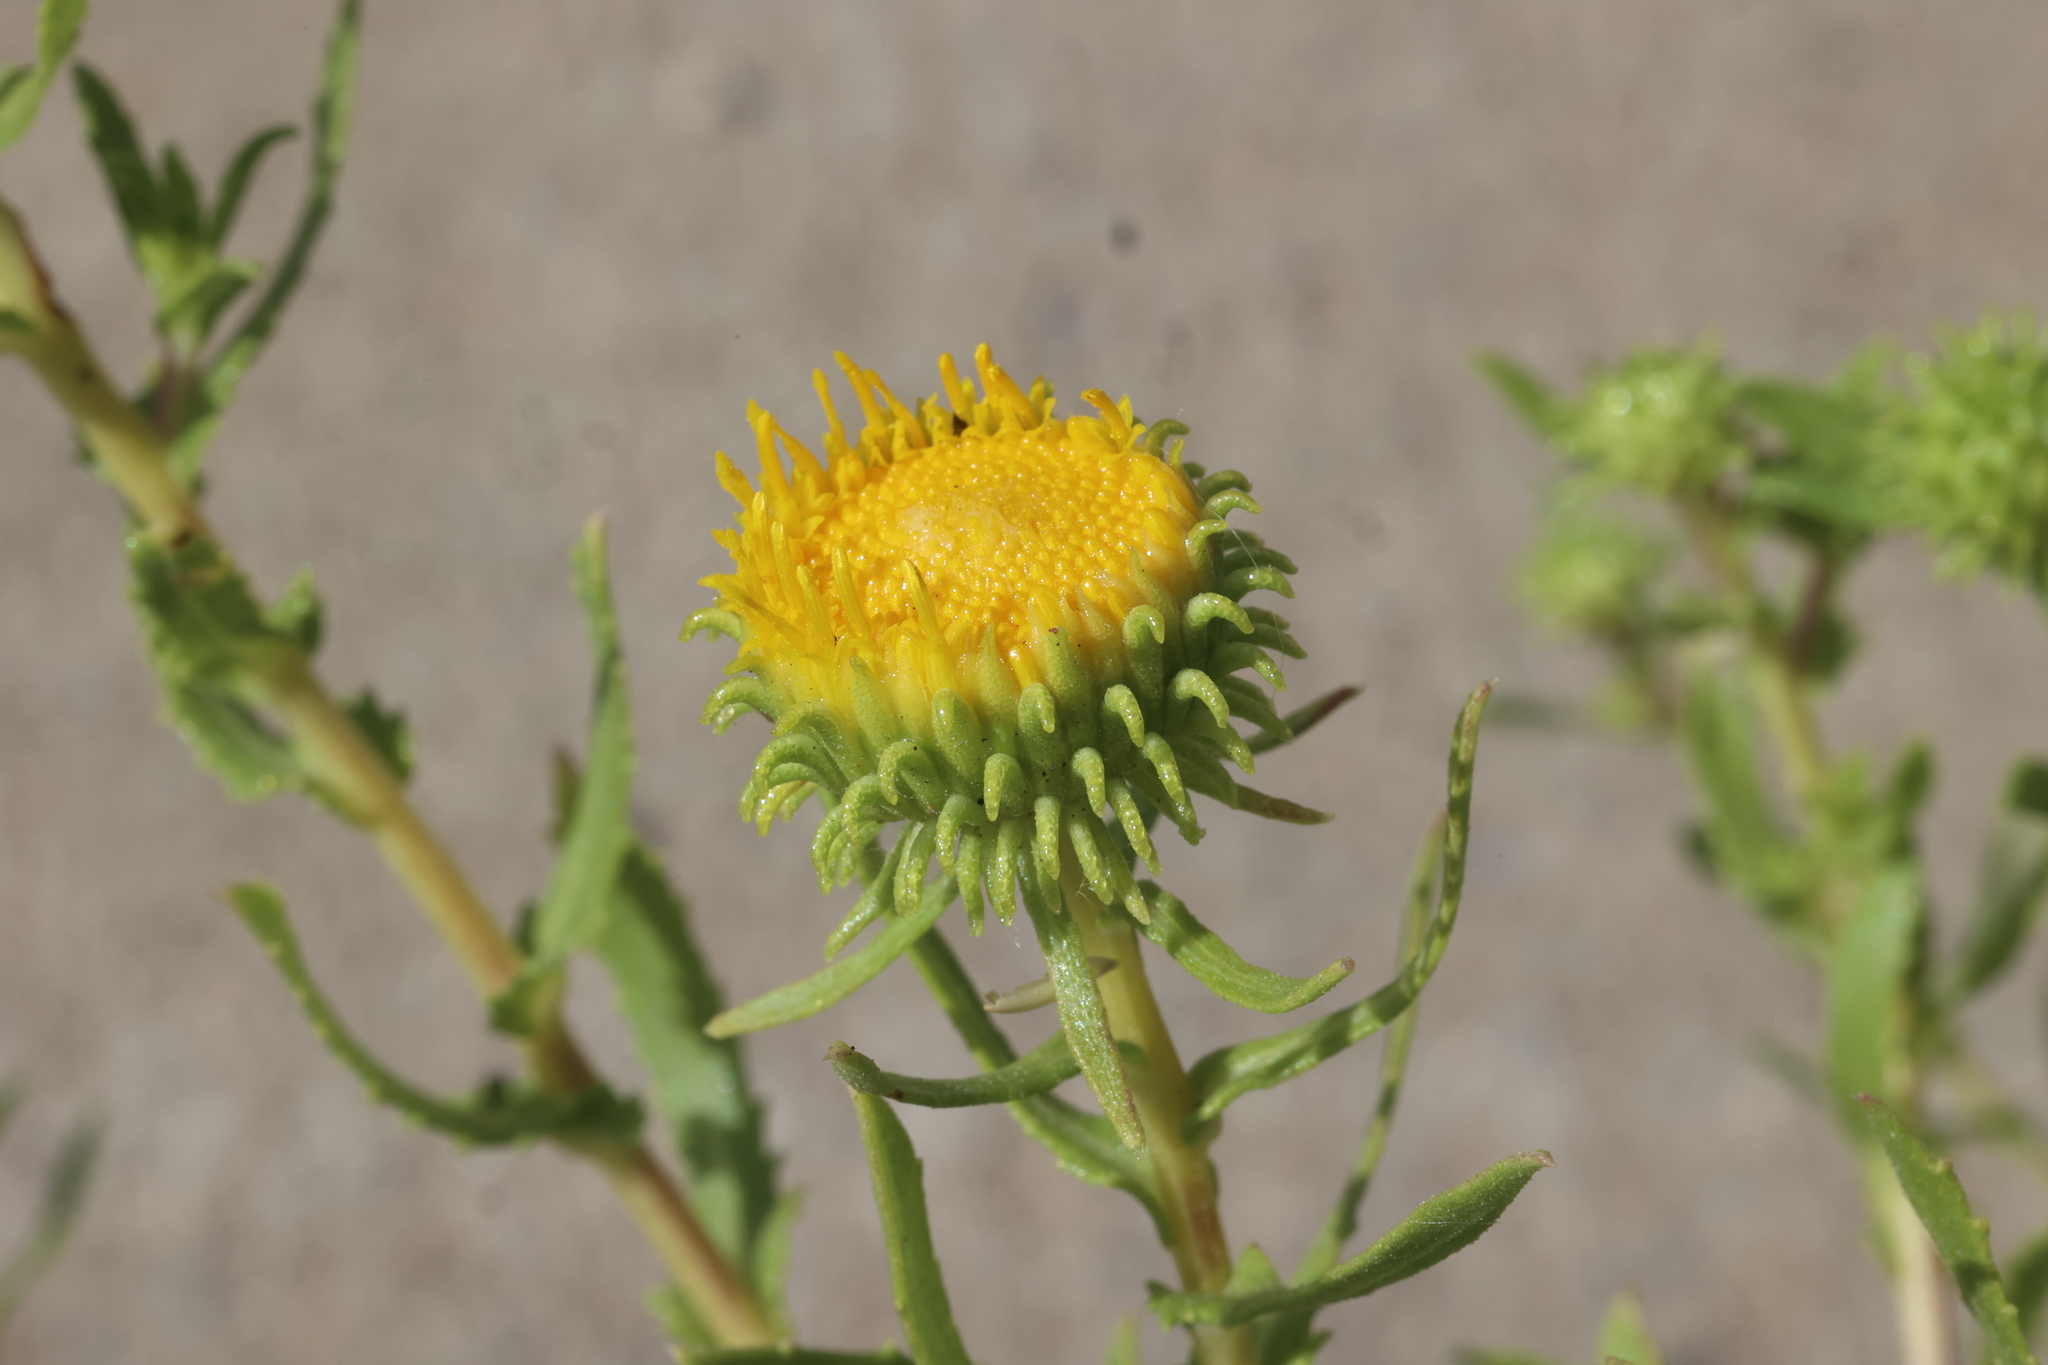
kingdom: Plantae
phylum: Tracheophyta
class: Magnoliopsida
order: Asterales
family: Asteraceae
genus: Grindelia
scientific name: Grindelia nuda
